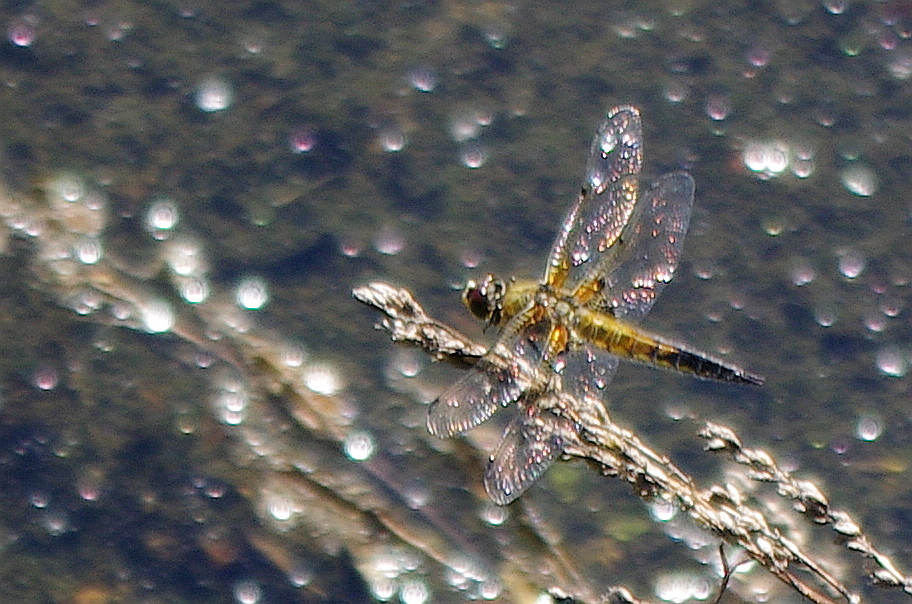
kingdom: Animalia
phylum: Arthropoda
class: Insecta
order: Odonata
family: Libellulidae
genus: Libellula
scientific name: Libellula quadrimaculata
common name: Four-spotted chaser
